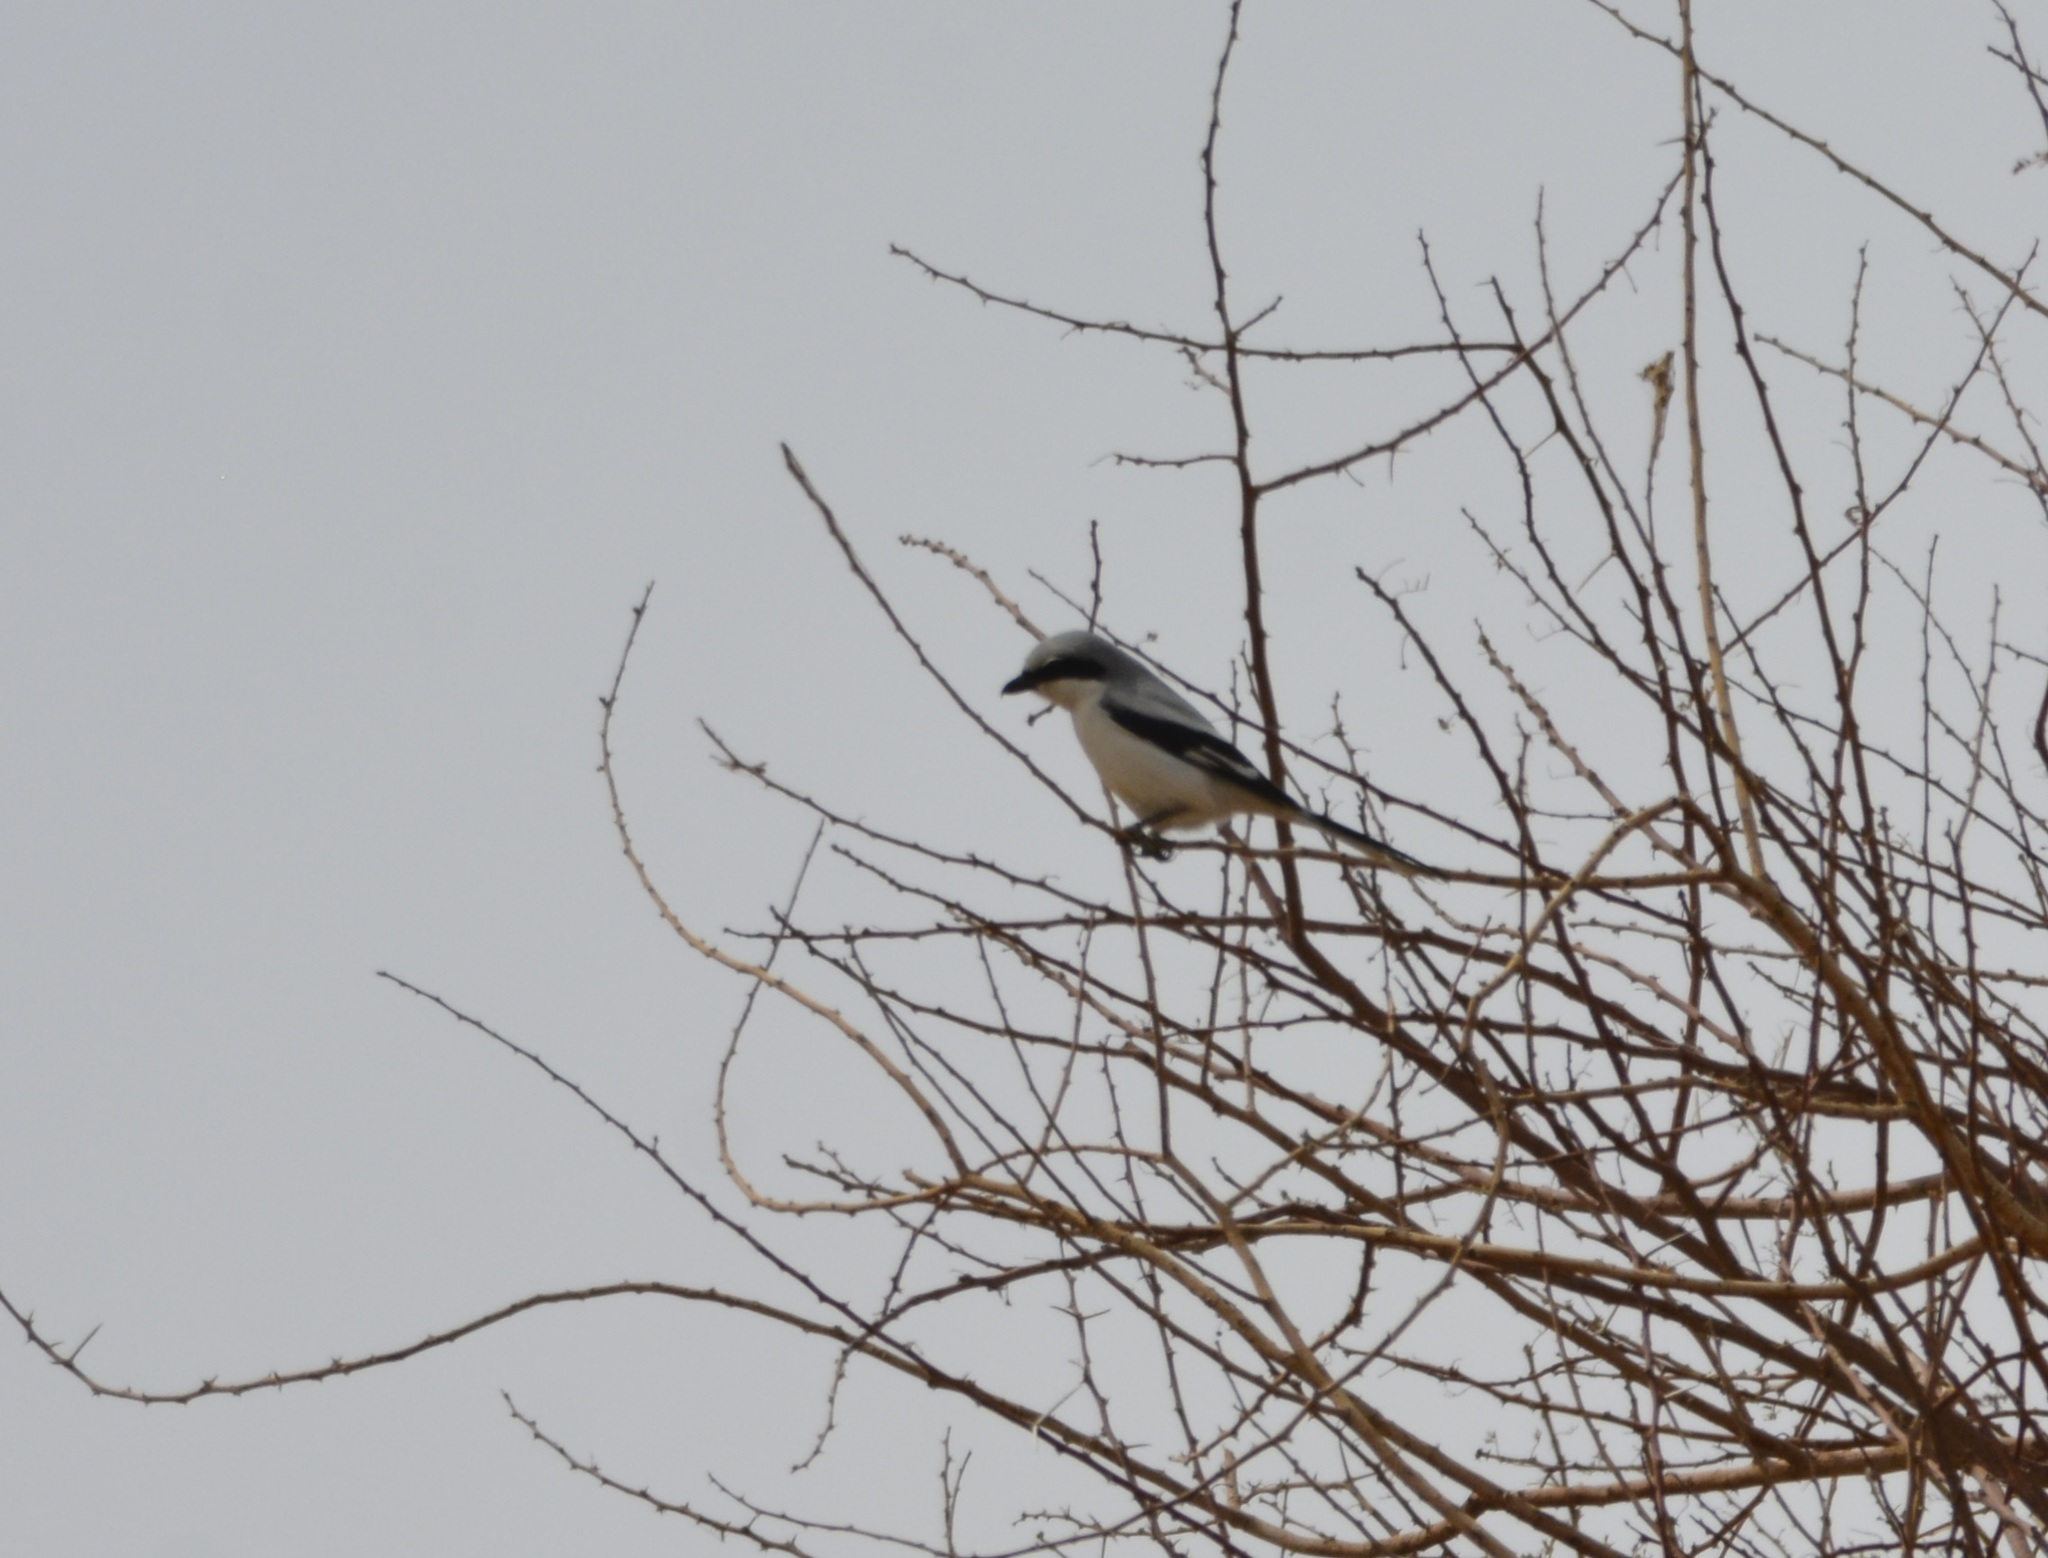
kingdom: Animalia
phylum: Chordata
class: Aves
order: Passeriformes
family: Laniidae
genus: Lanius
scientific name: Lanius excubitor
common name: Great grey shrike
